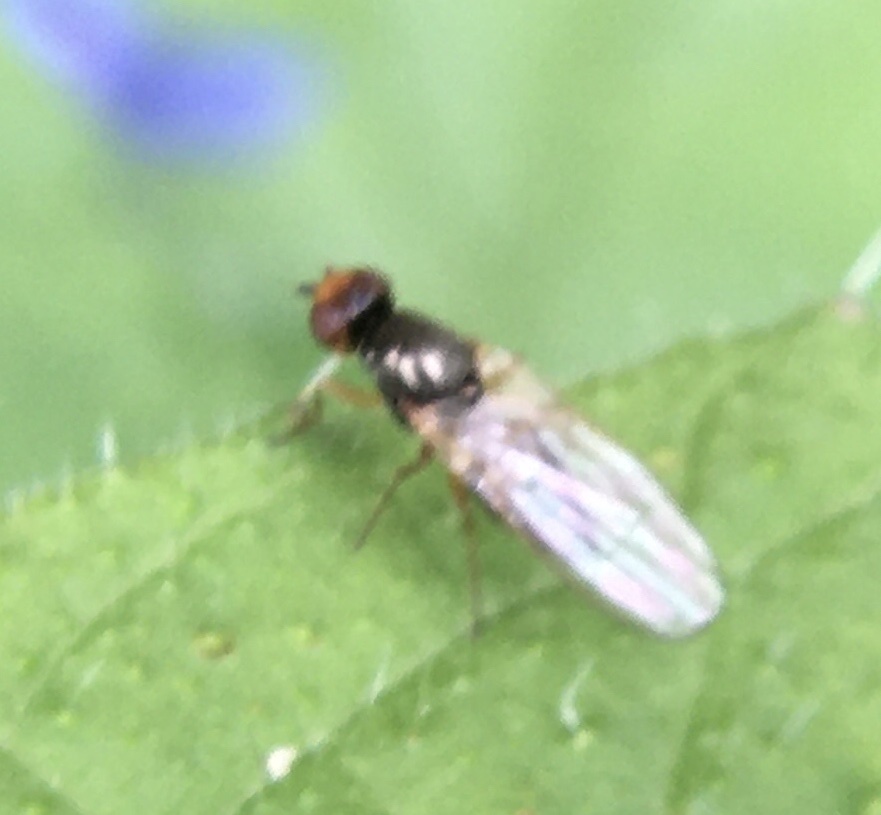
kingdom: Animalia
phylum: Arthropoda
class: Insecta
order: Diptera
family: Psilidae
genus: Chamaepsila
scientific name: Chamaepsila
